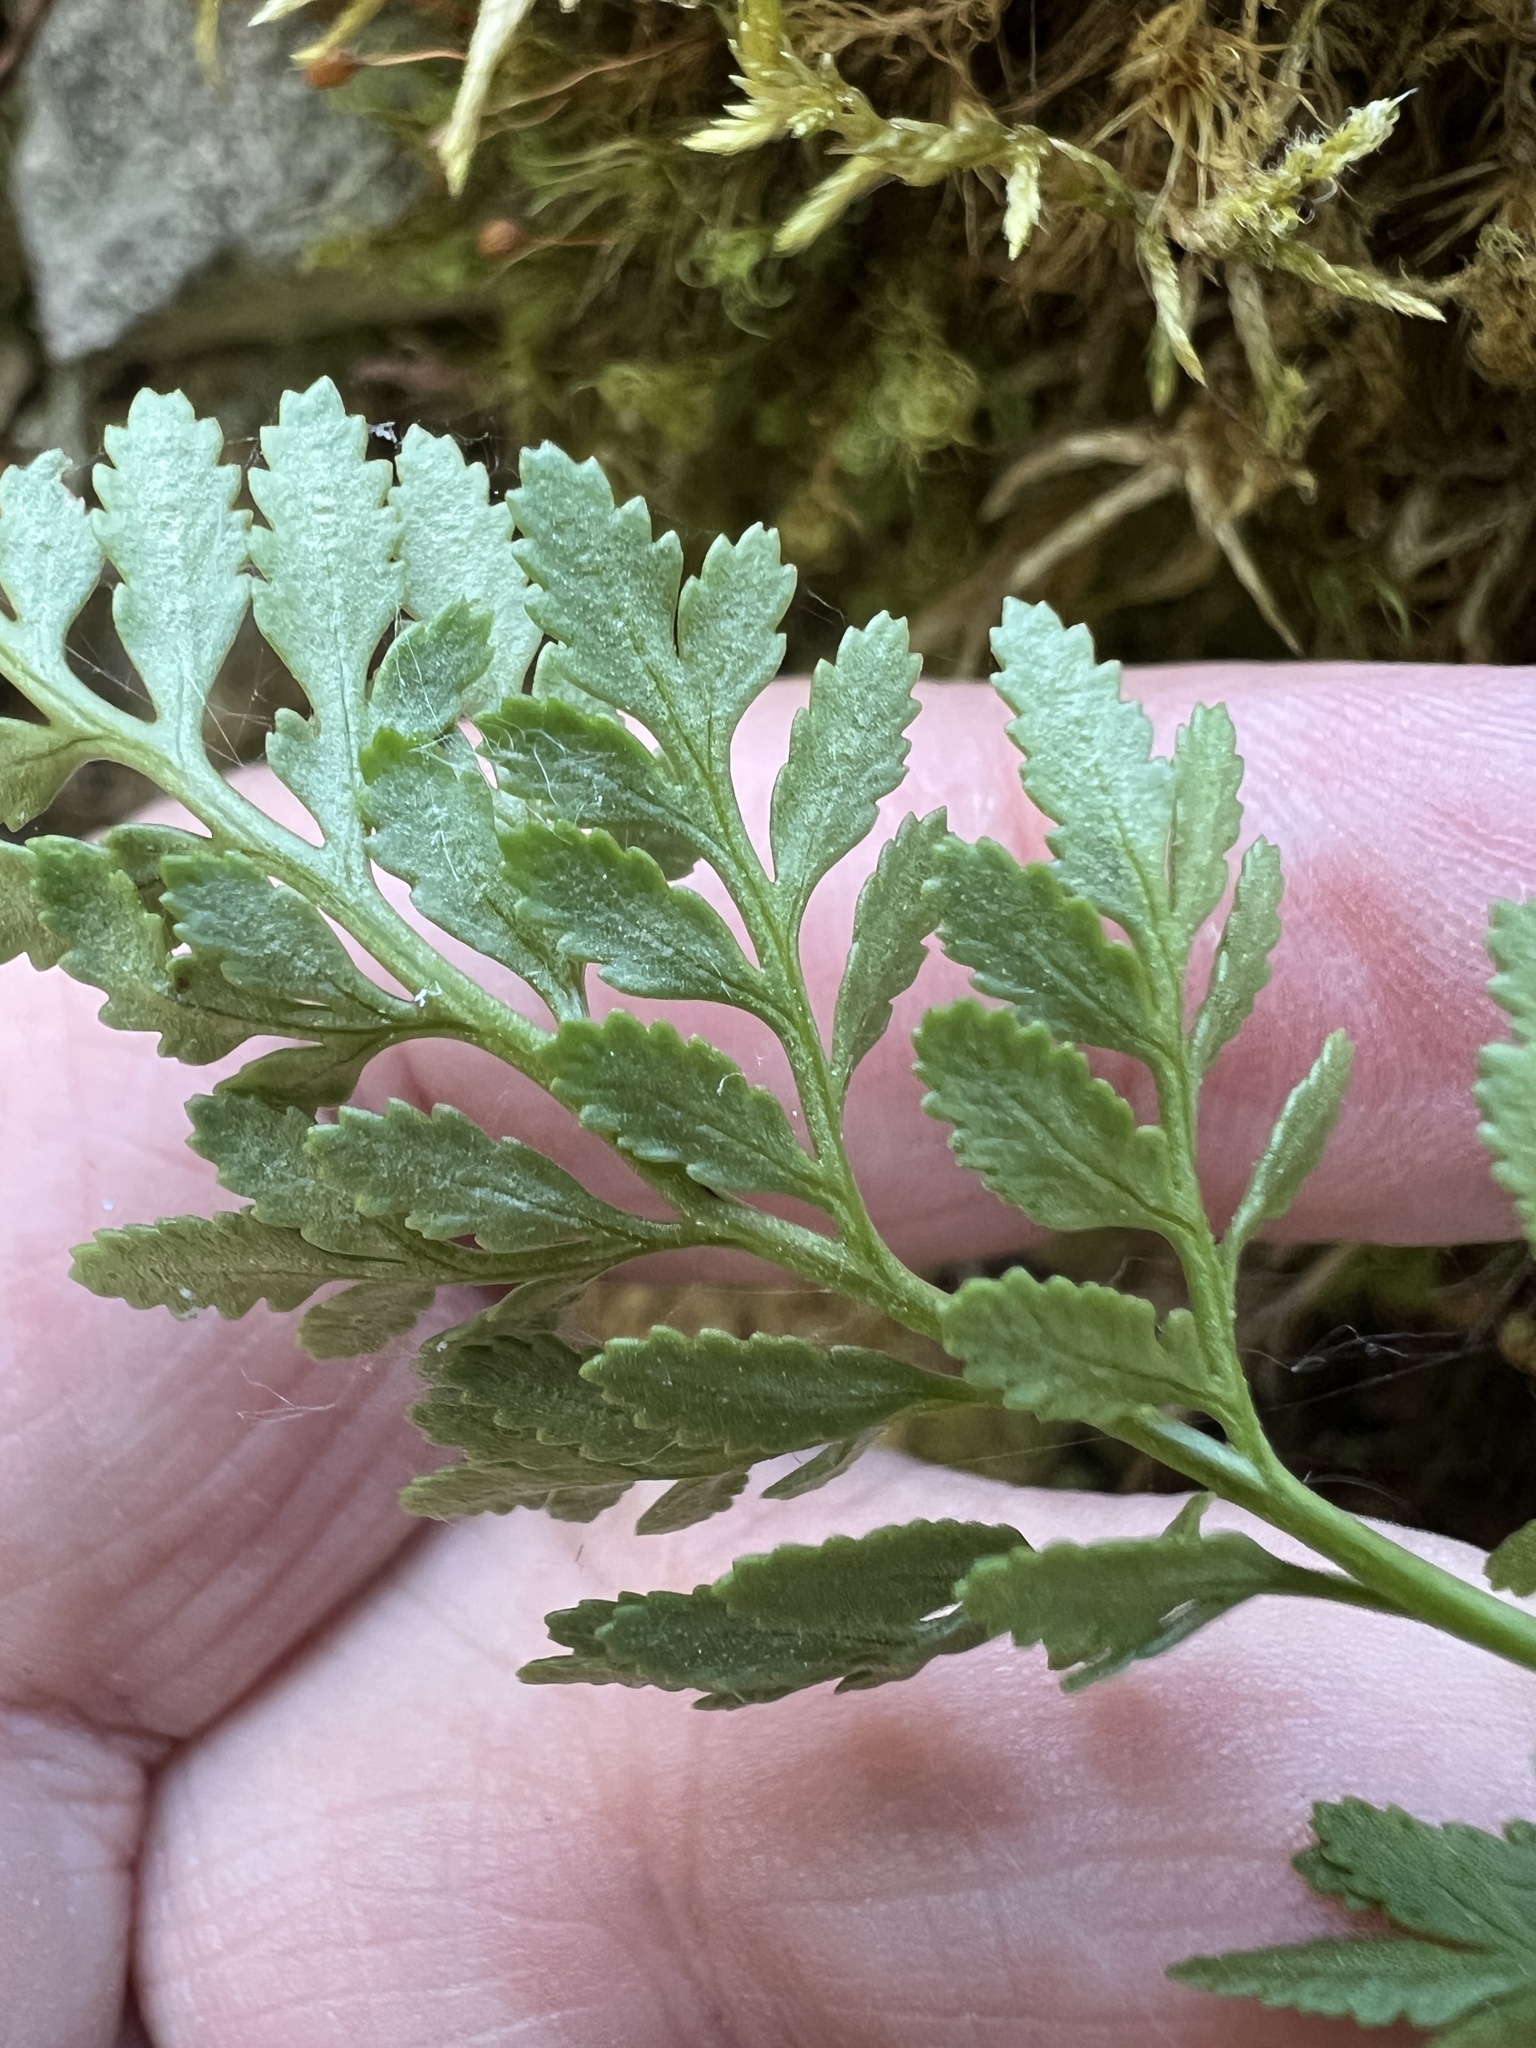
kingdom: Plantae
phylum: Tracheophyta
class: Polypodiopsida
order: Polypodiales
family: Pteridaceae
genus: Cryptogramma
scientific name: Cryptogramma acrostichoides
